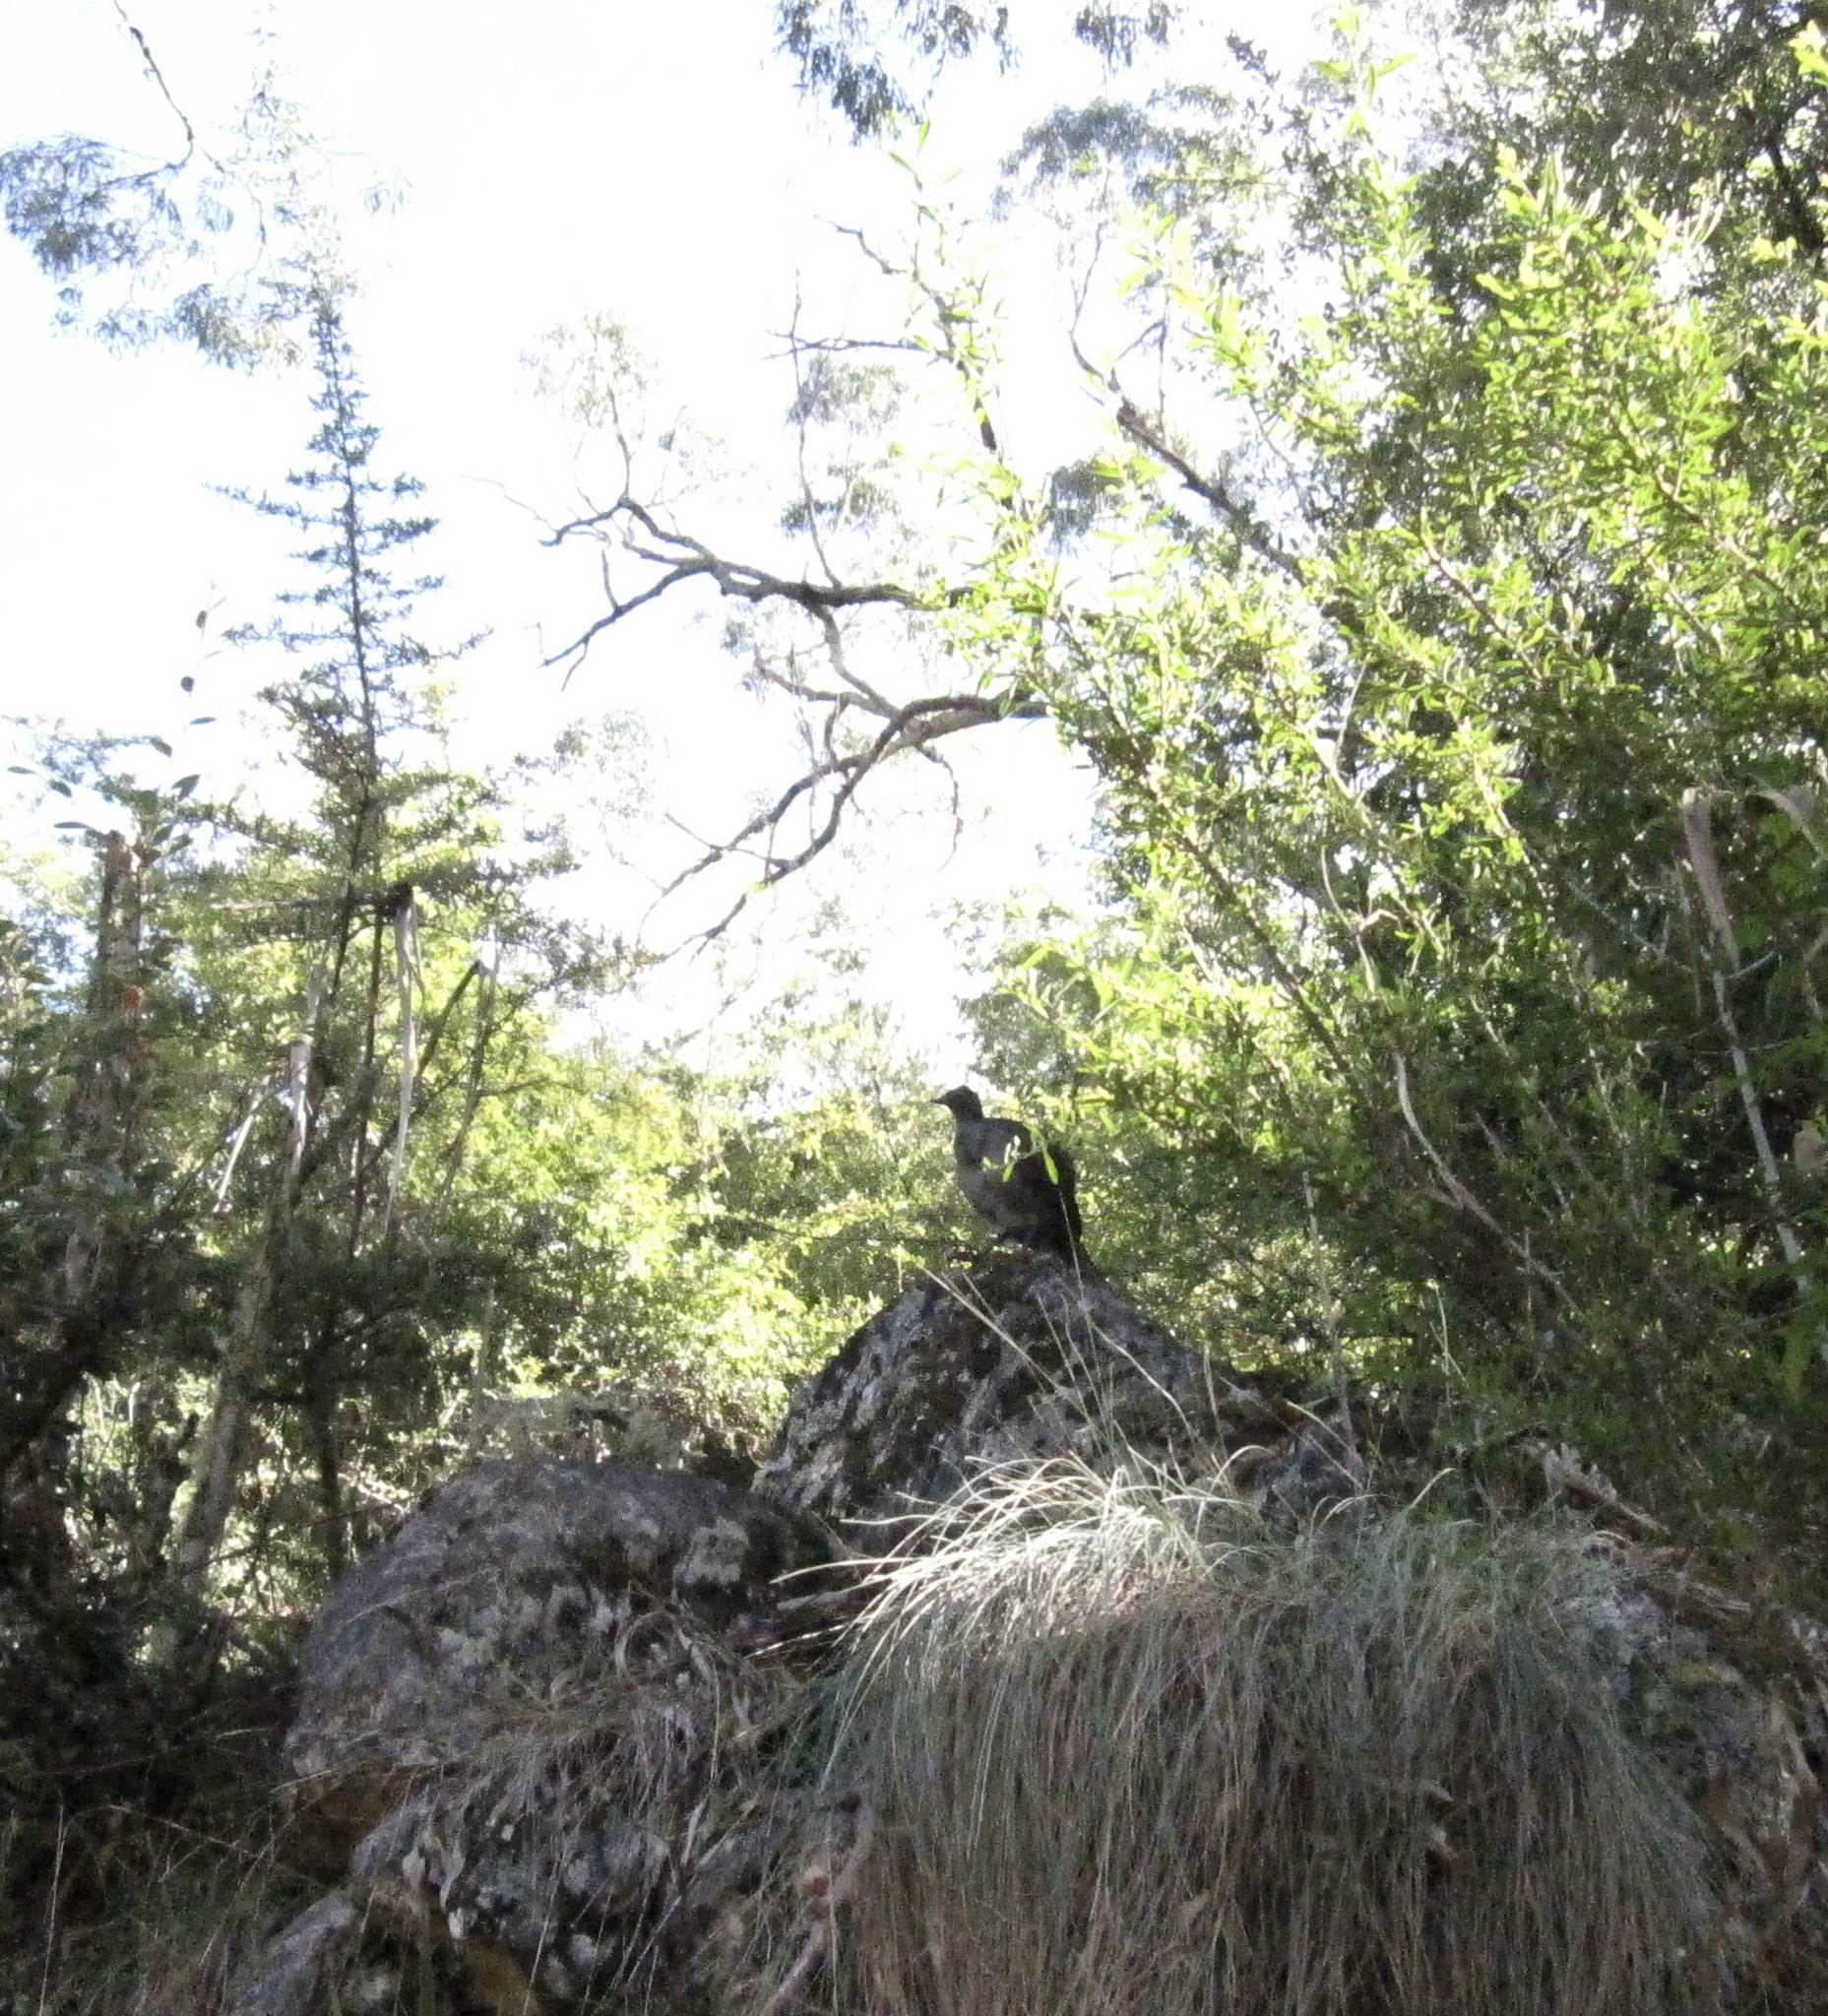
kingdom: Animalia
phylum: Chordata
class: Aves
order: Passeriformes
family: Menuridae
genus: Menura
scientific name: Menura novaehollandiae
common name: Superb lyrebird
